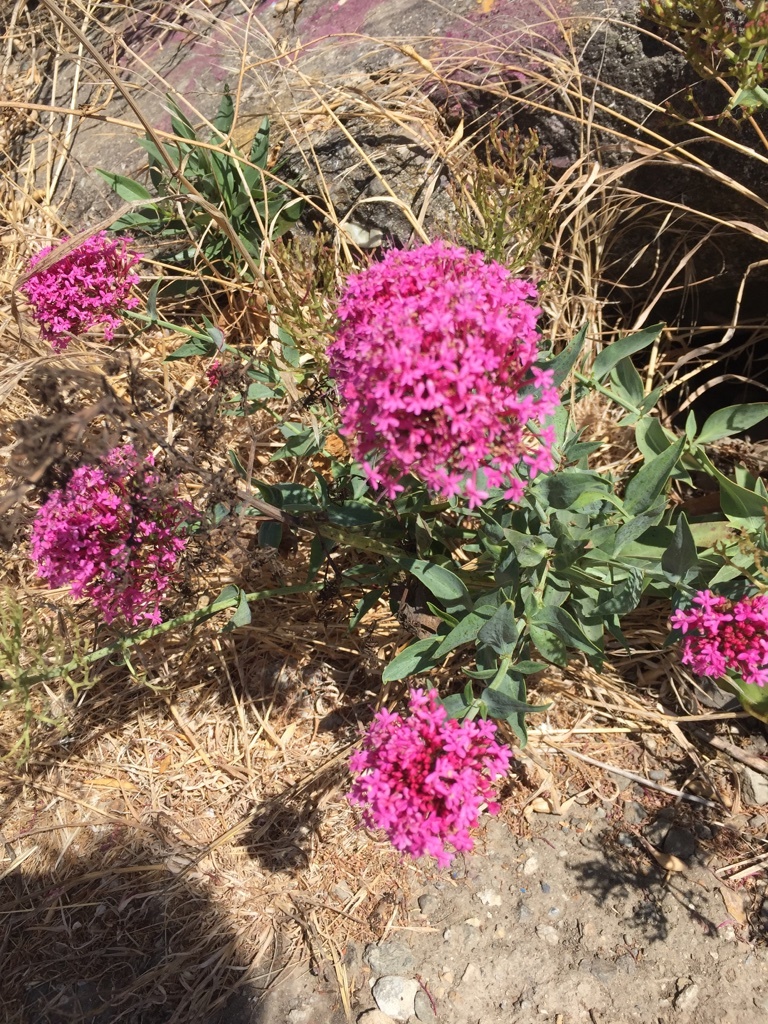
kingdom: Plantae
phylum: Tracheophyta
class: Magnoliopsida
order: Dipsacales
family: Caprifoliaceae
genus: Centranthus
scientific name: Centranthus ruber
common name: Red valerian
